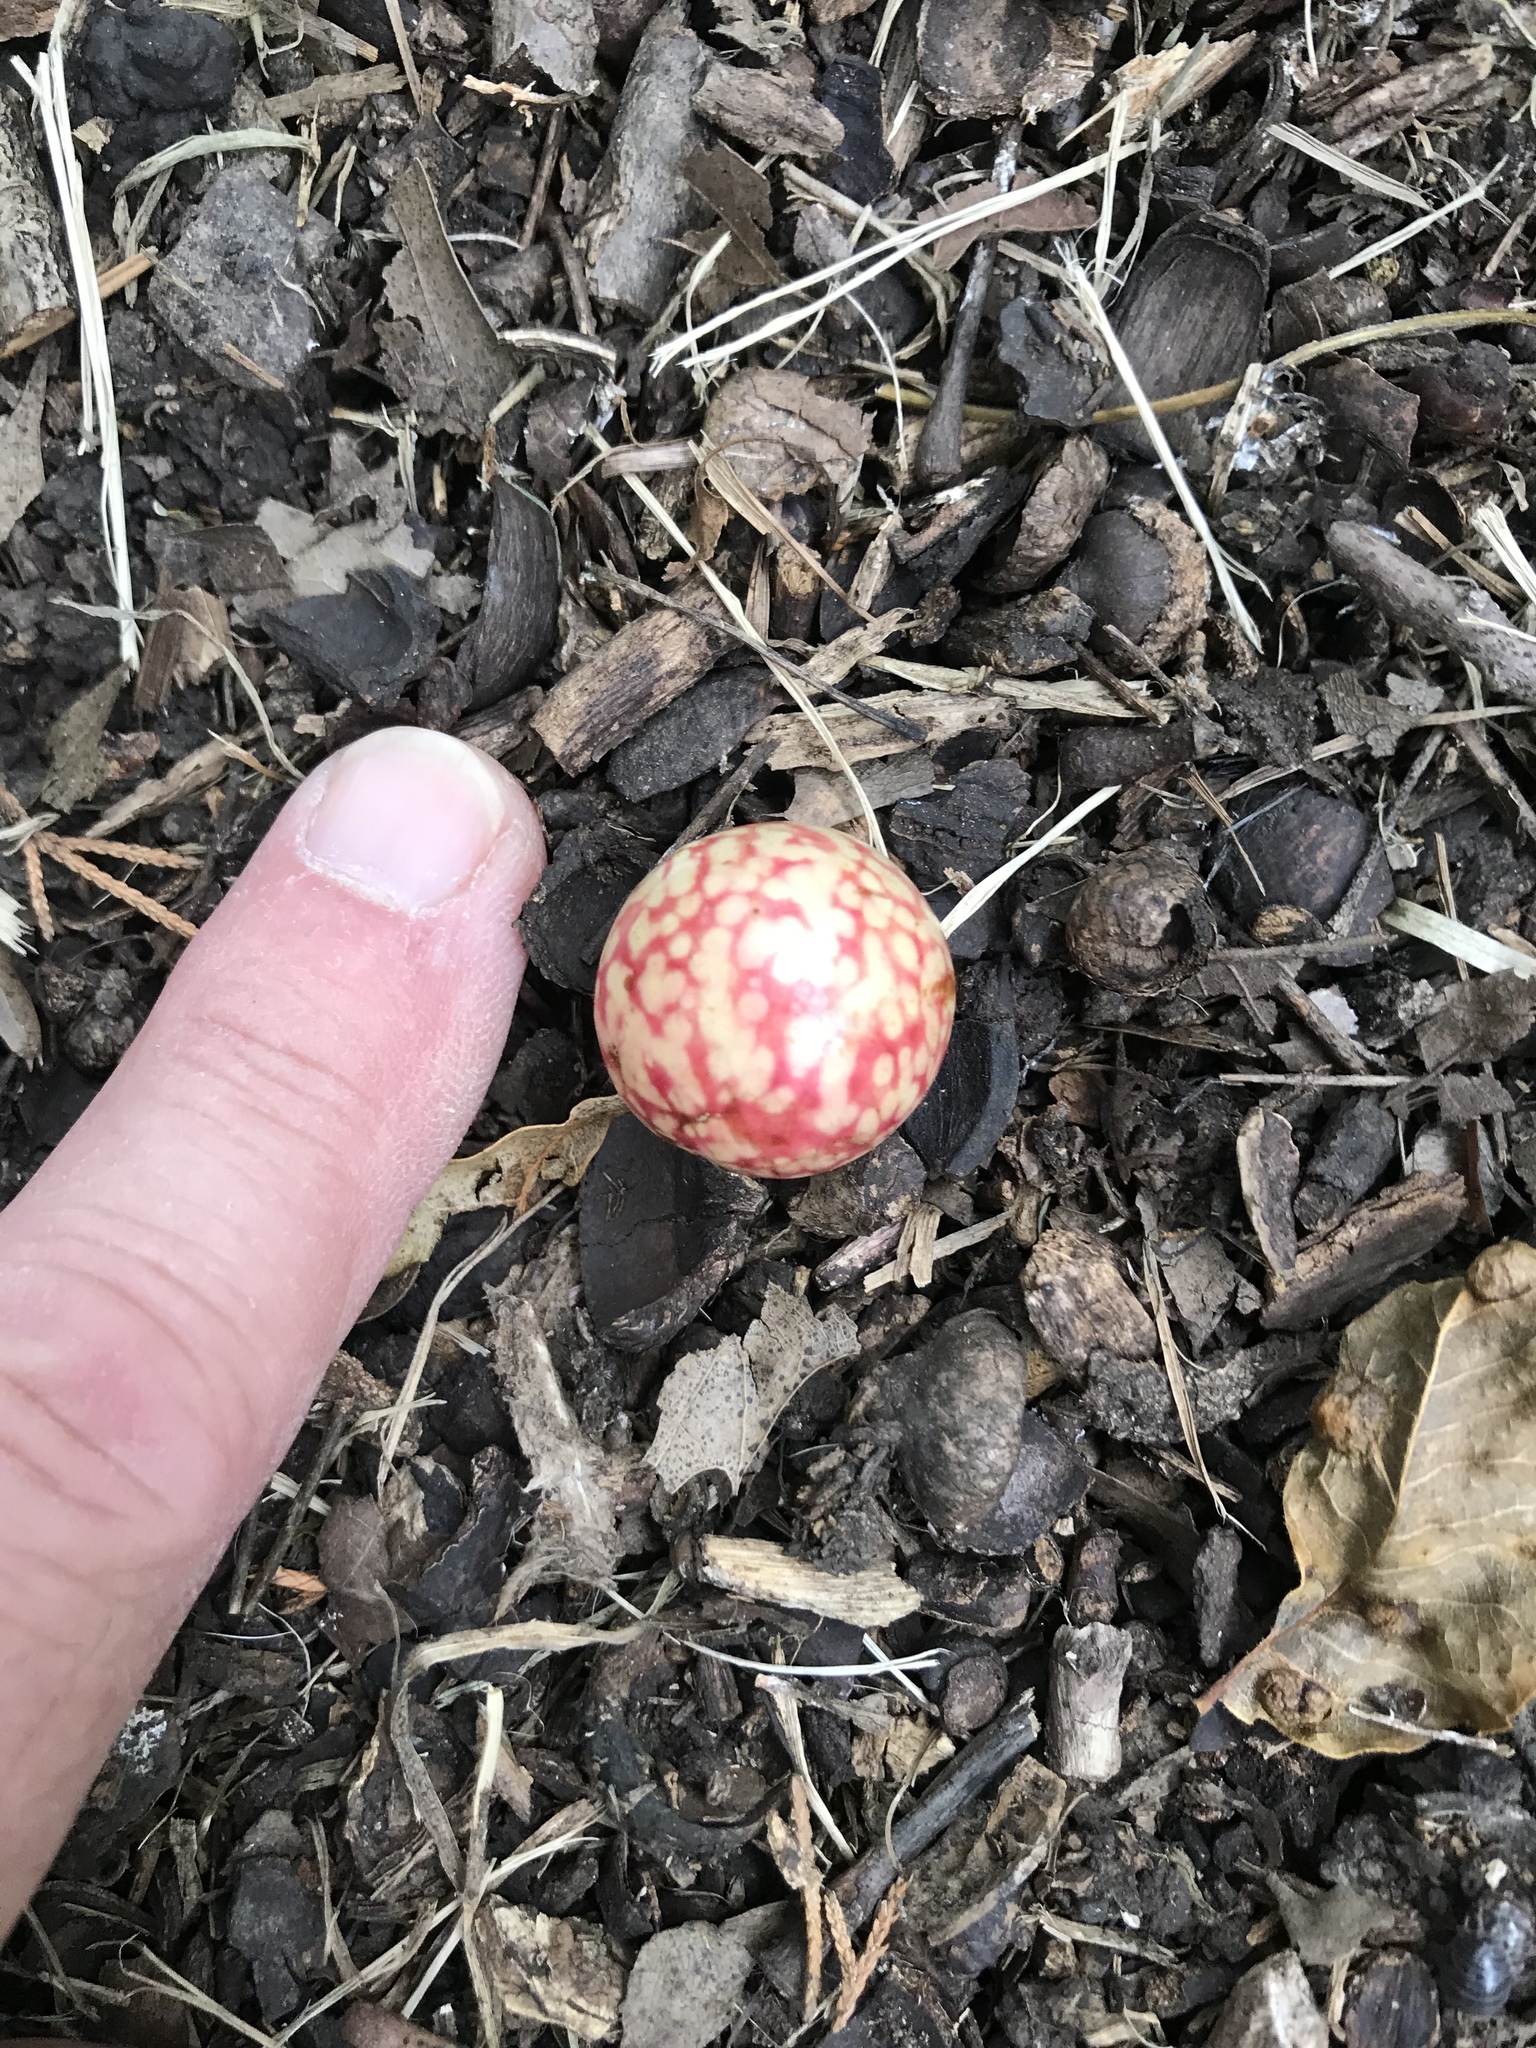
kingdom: Animalia
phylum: Arthropoda
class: Insecta
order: Hymenoptera
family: Cynipidae
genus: Amphibolips
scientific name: Amphibolips
